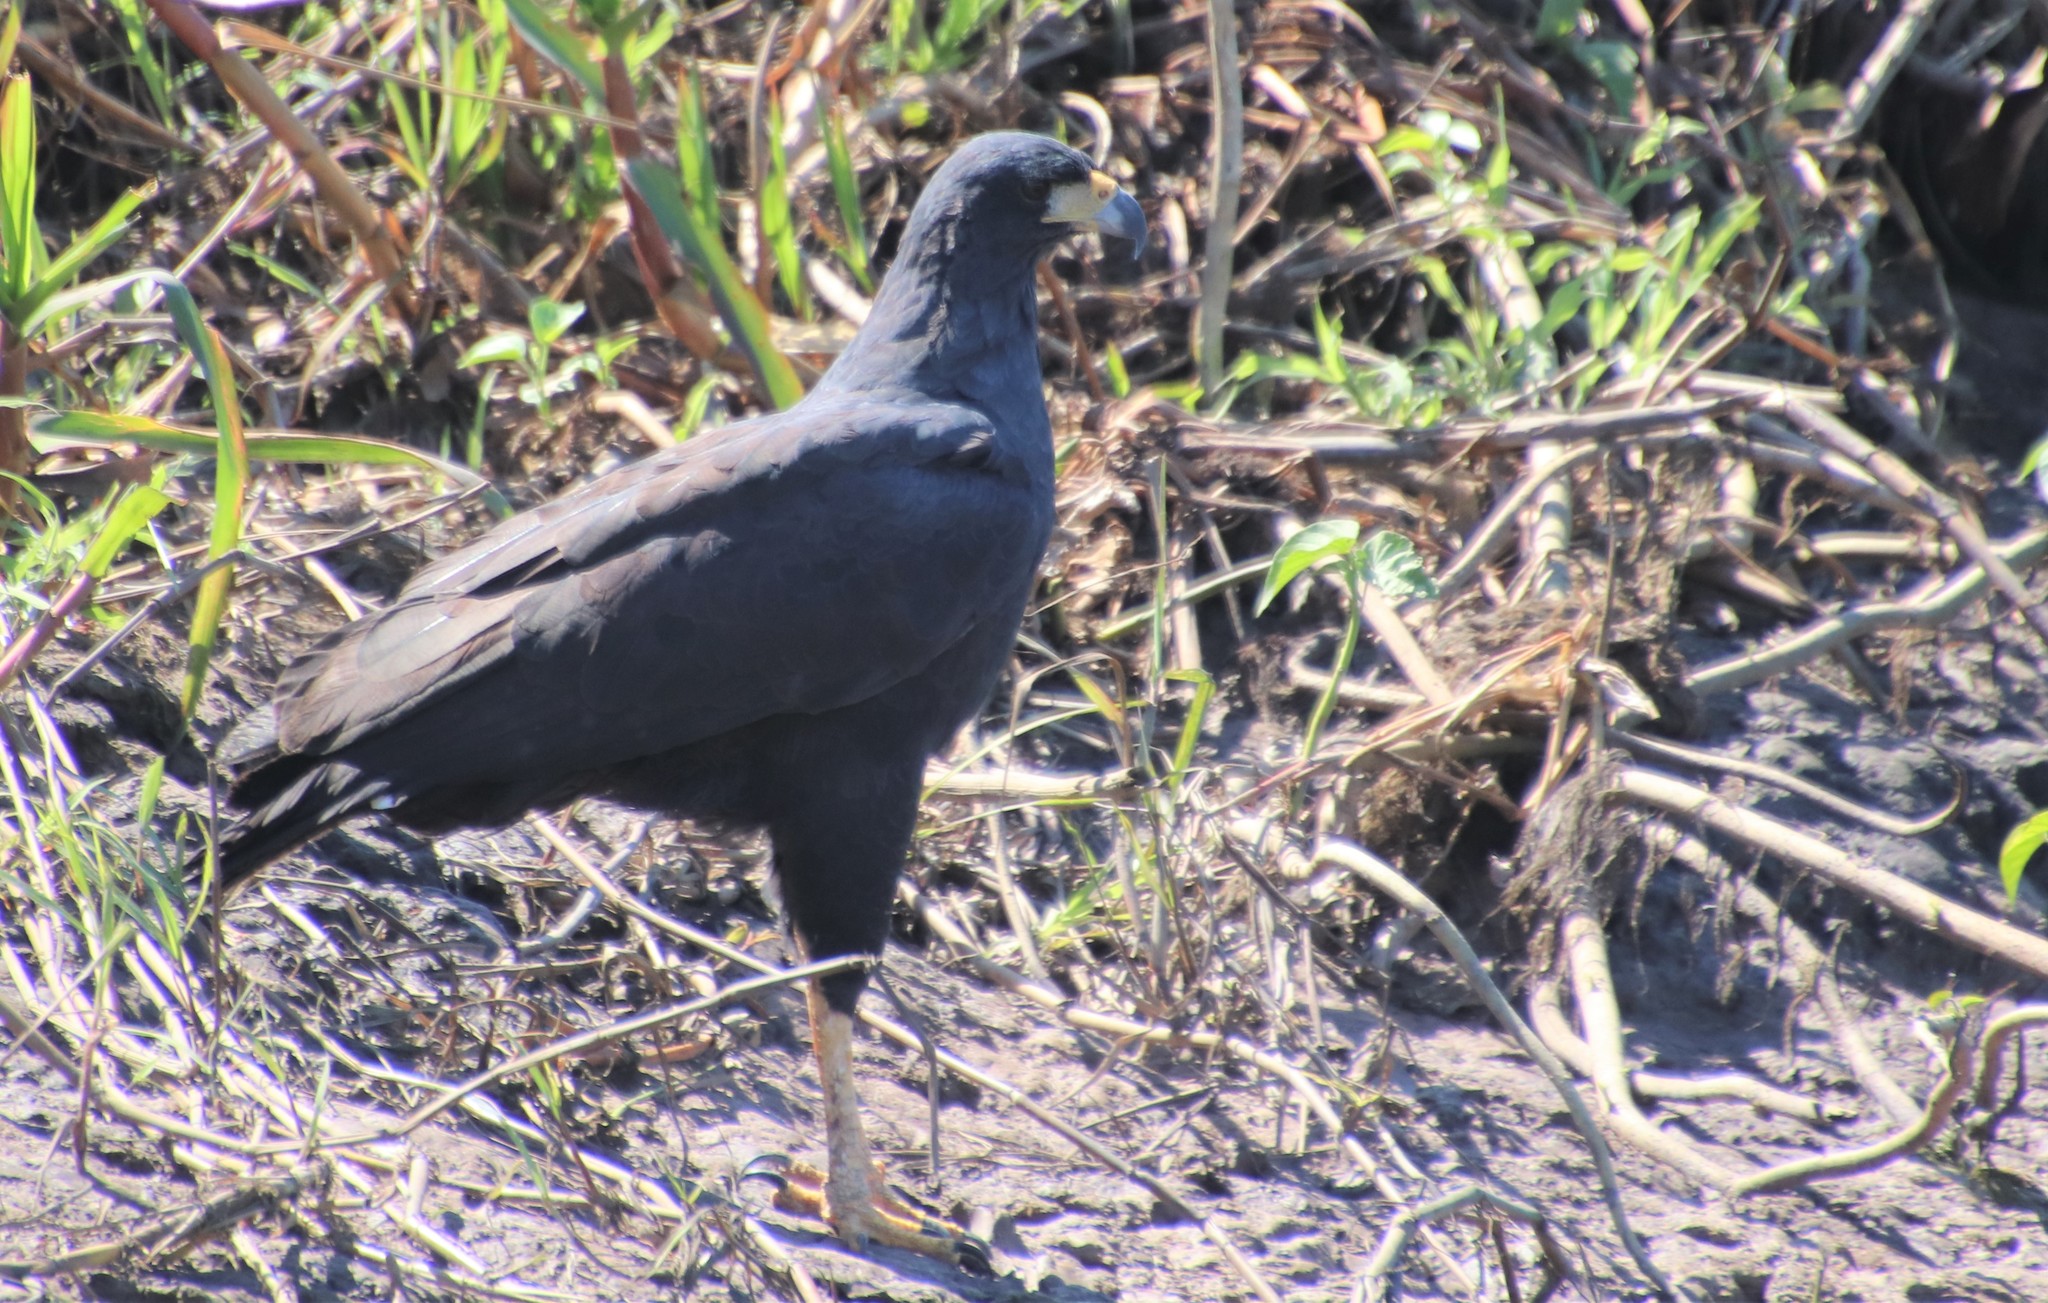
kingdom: Animalia
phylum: Chordata
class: Aves
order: Accipitriformes
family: Accipitridae
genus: Buteogallus
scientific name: Buteogallus urubitinga
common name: Great black hawk
